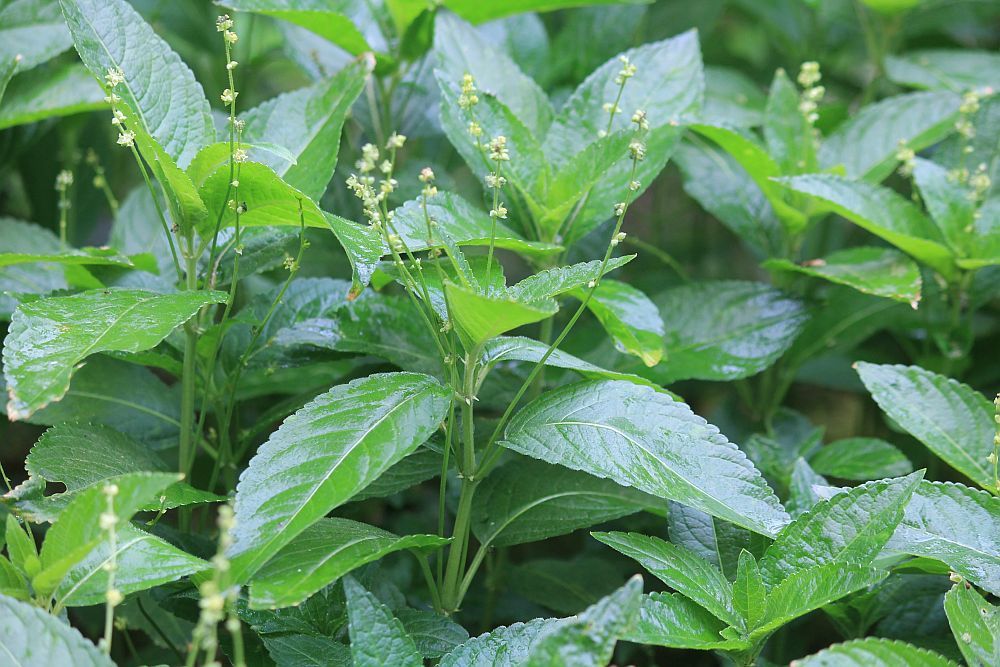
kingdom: Plantae
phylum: Tracheophyta
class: Magnoliopsida
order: Malpighiales
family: Euphorbiaceae
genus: Mercurialis
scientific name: Mercurialis perennis
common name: Dog mercury
